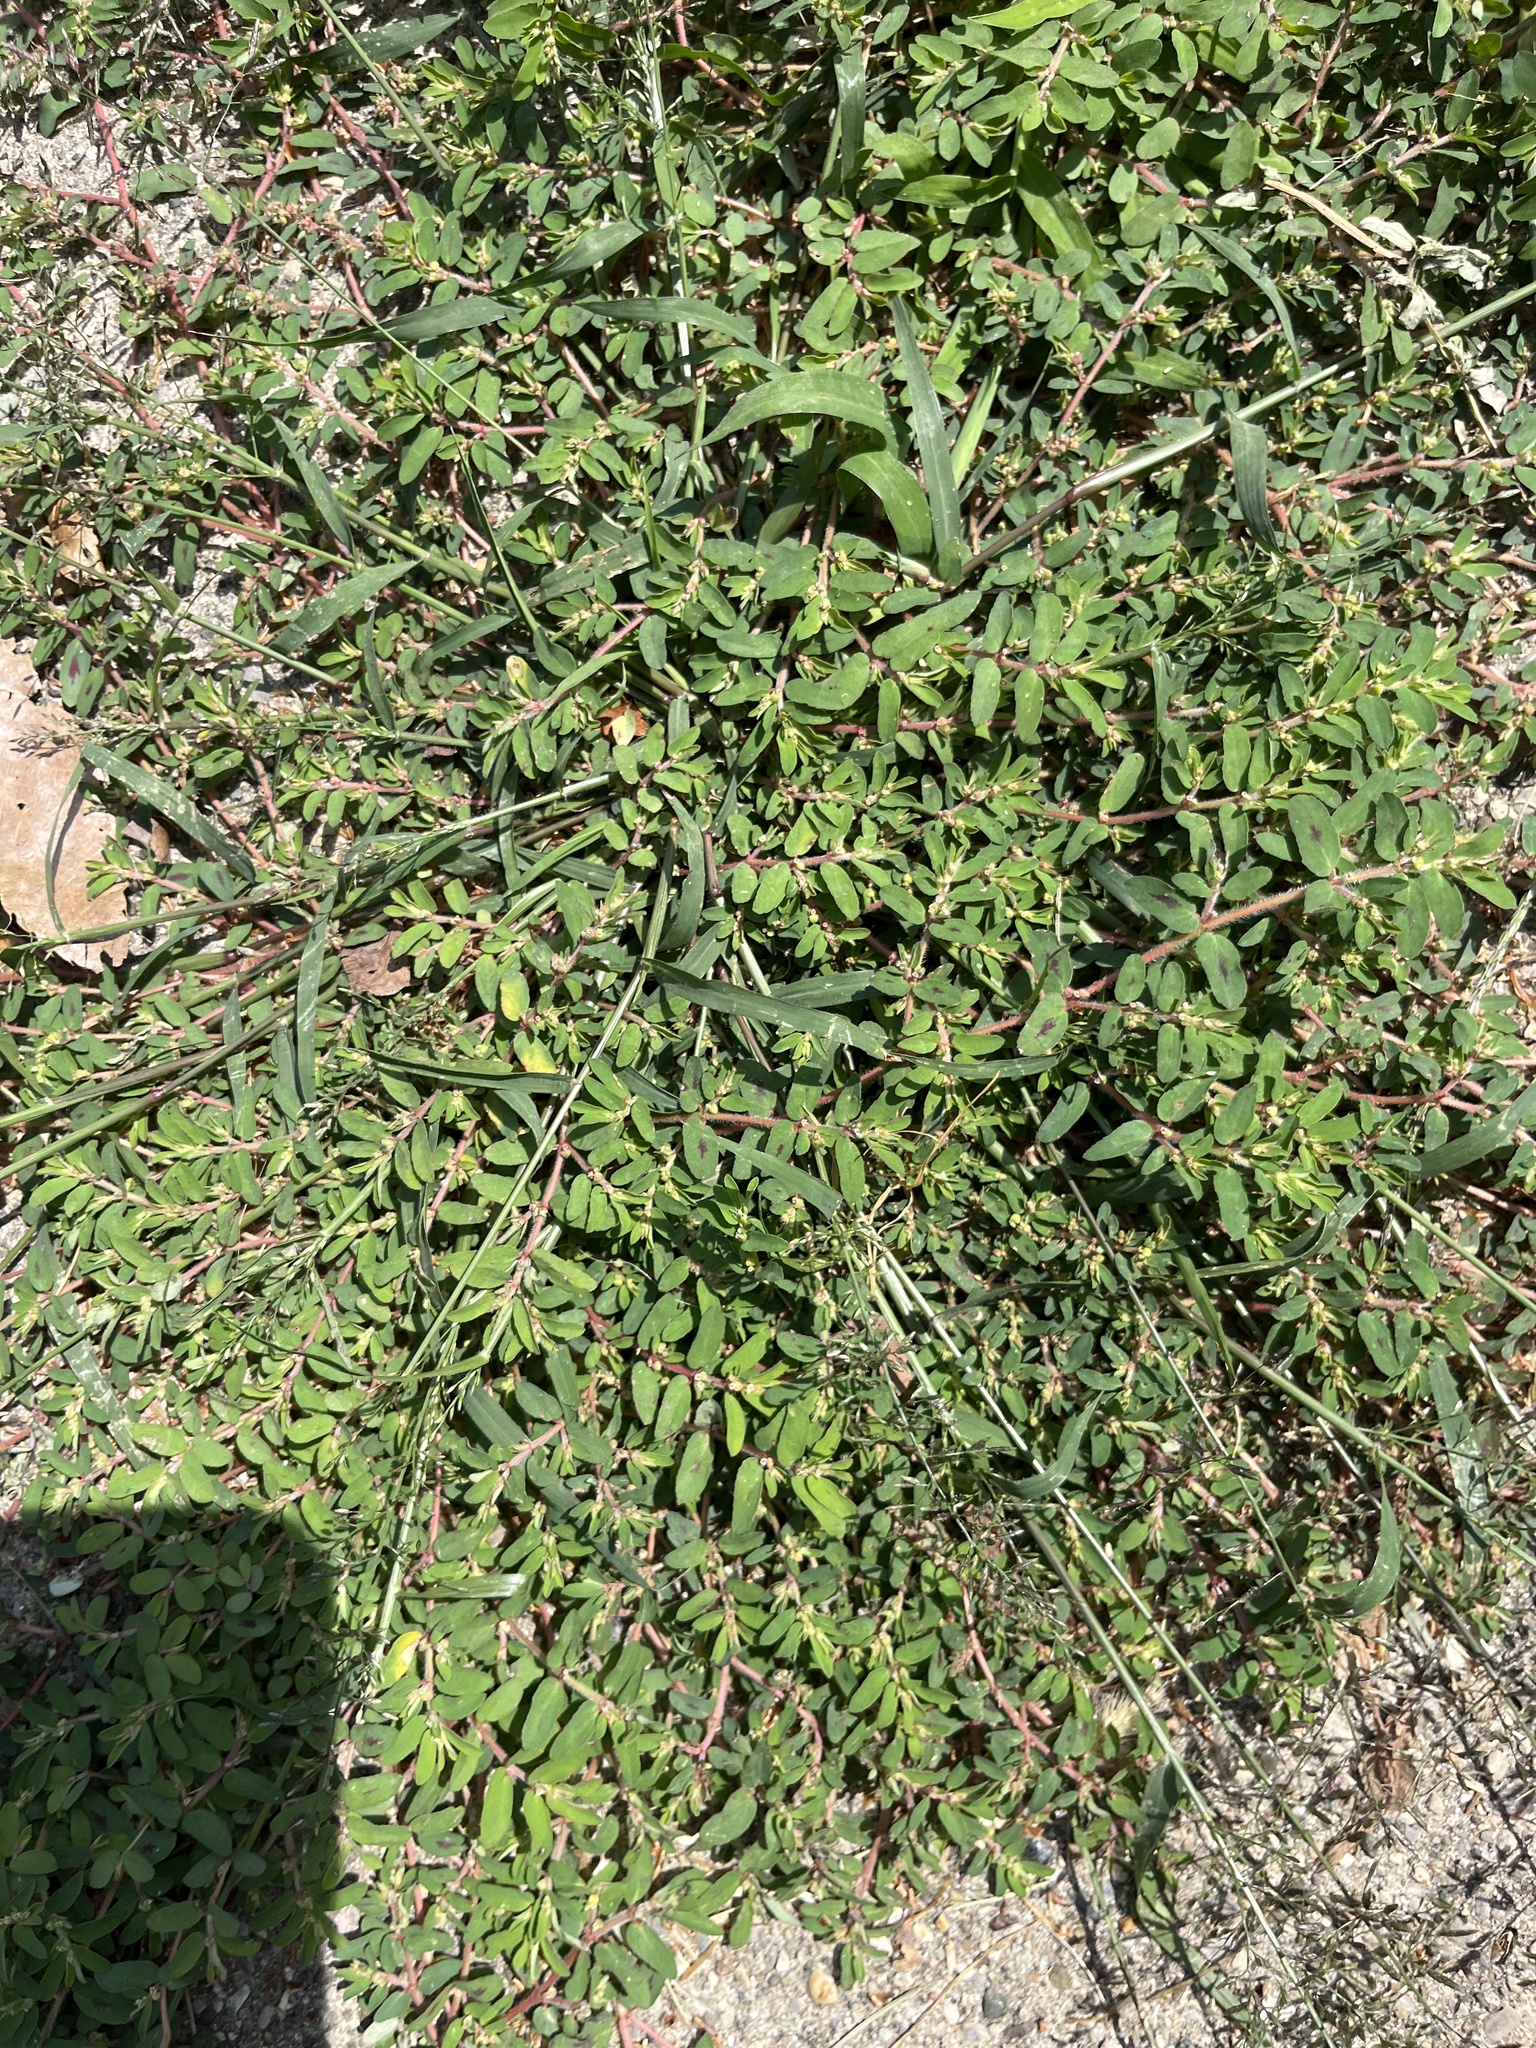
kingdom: Plantae
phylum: Tracheophyta
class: Magnoliopsida
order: Malpighiales
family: Euphorbiaceae
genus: Euphorbia
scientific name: Euphorbia maculata
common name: Spotted spurge
